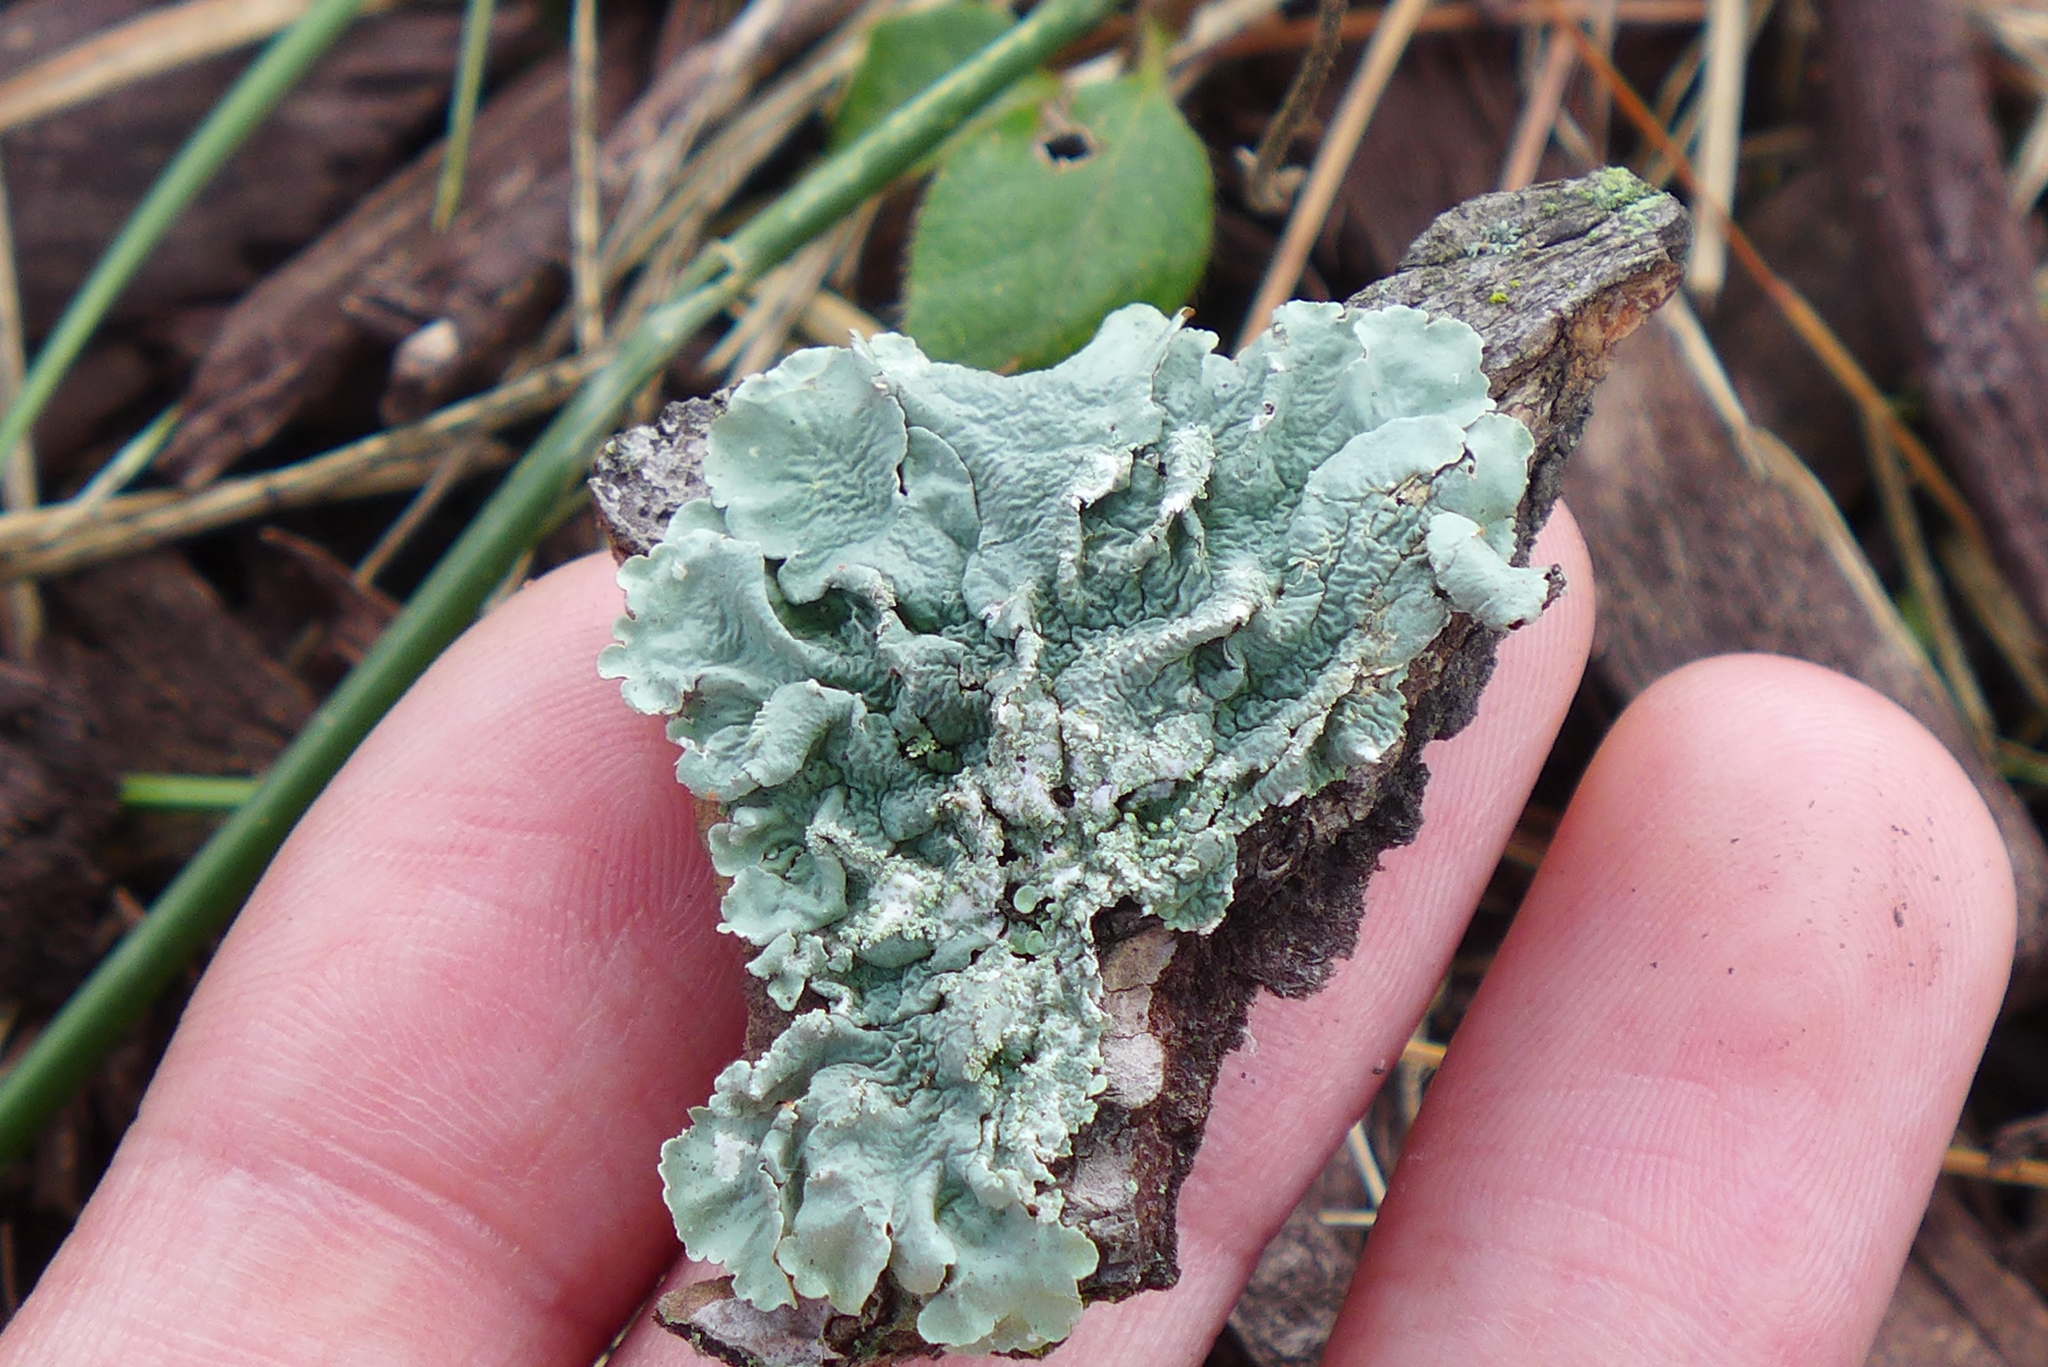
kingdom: Fungi
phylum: Ascomycota
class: Lecanoromycetes
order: Lecanorales
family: Parmeliaceae
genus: Flavoparmelia
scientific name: Flavoparmelia caperata
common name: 40-mile per hour lichen
